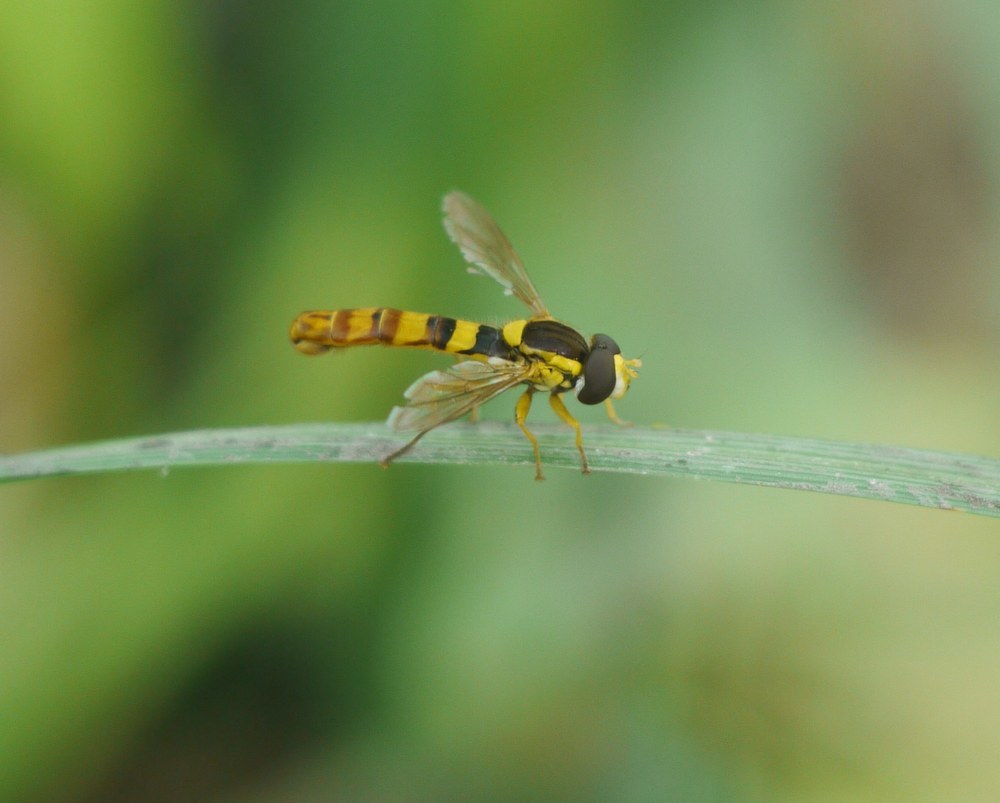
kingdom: Animalia
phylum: Arthropoda
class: Insecta
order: Diptera
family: Syrphidae
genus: Sphaerophoria
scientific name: Sphaerophoria scripta
